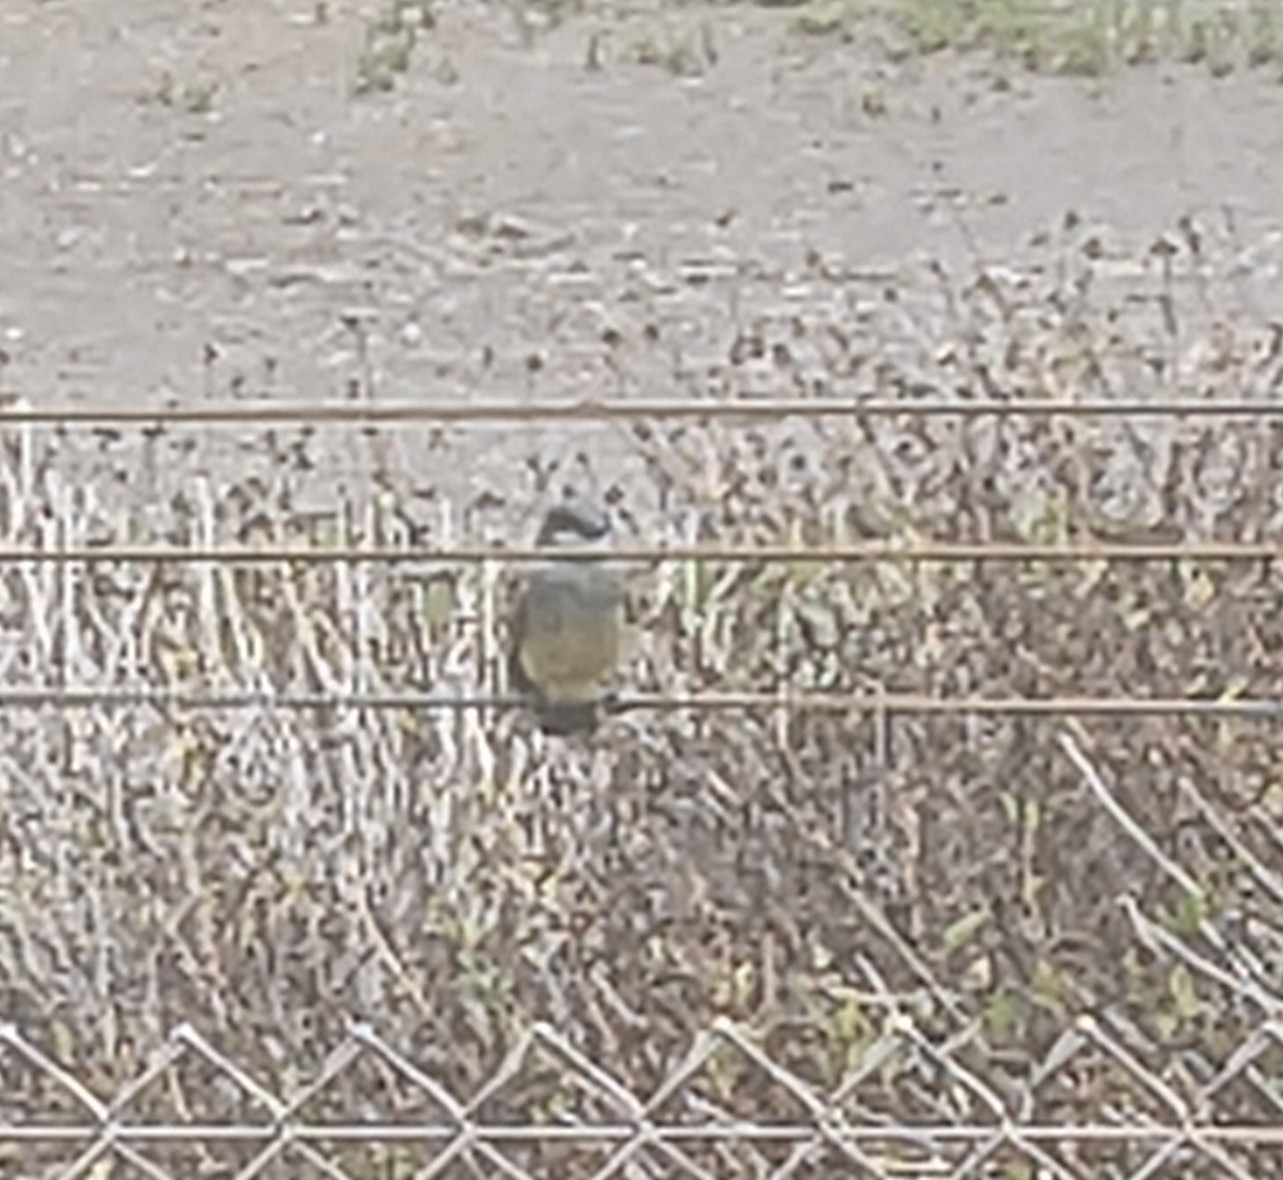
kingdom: Animalia
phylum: Chordata
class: Aves
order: Passeriformes
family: Tyrannidae
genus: Tyrannus
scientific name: Tyrannus vociferans
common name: Cassin's kingbird
